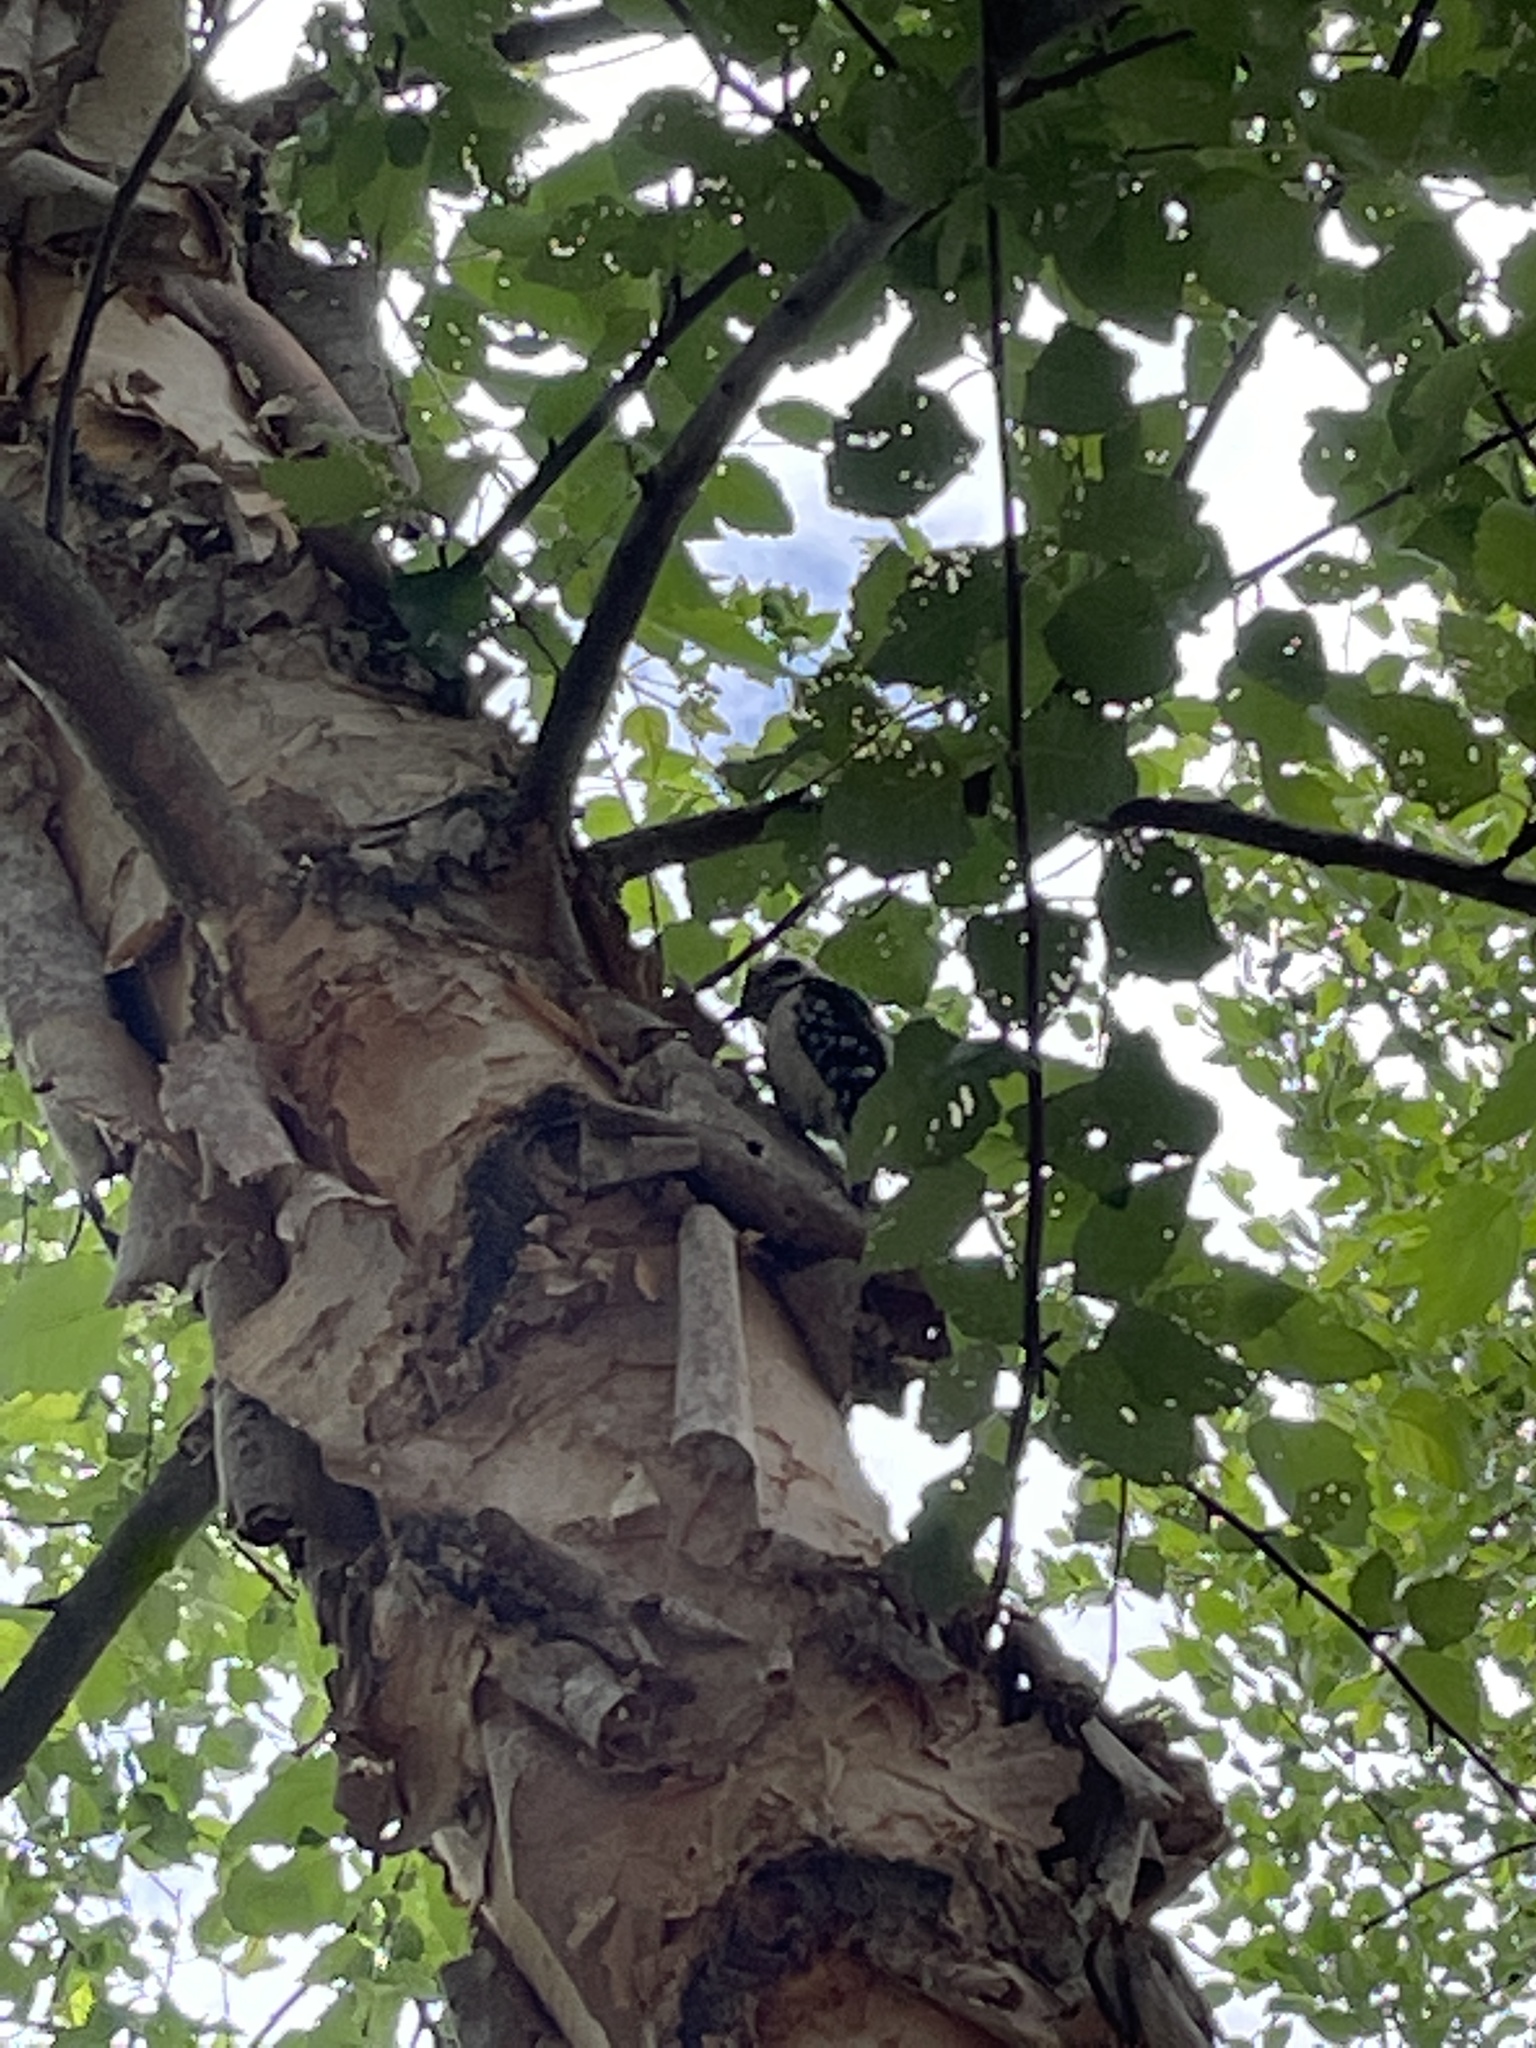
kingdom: Animalia
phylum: Chordata
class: Aves
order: Piciformes
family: Picidae
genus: Dryobates
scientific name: Dryobates pubescens
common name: Downy woodpecker
